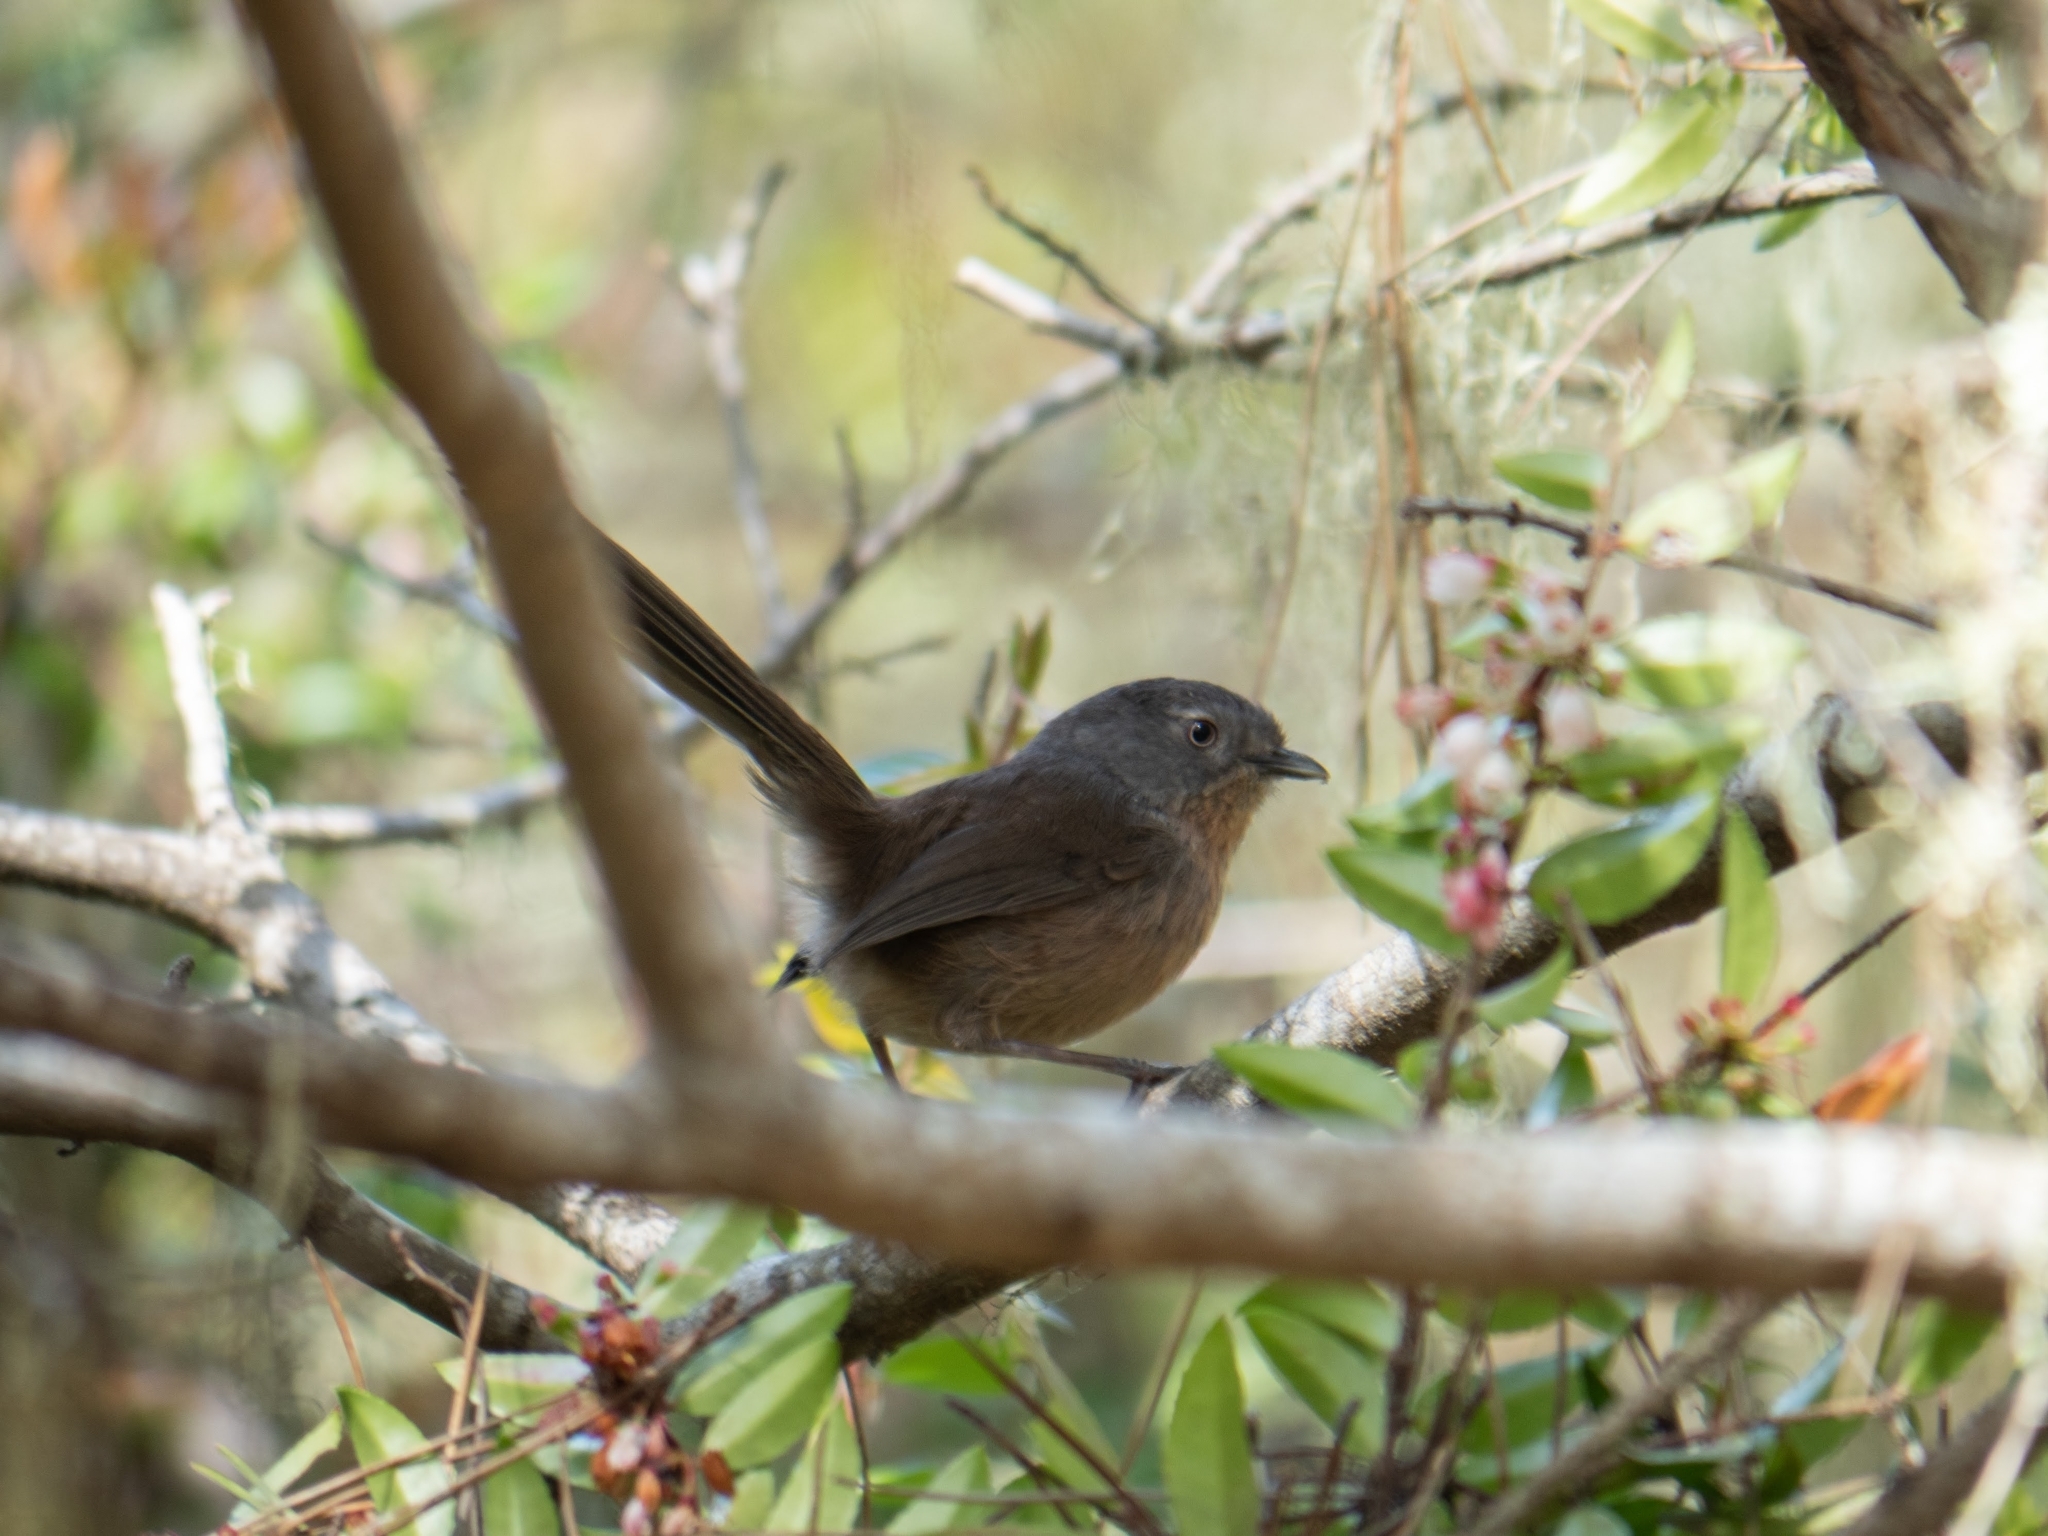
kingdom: Animalia
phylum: Chordata
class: Aves
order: Passeriformes
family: Sylviidae
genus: Chamaea
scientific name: Chamaea fasciata
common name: Wrentit
